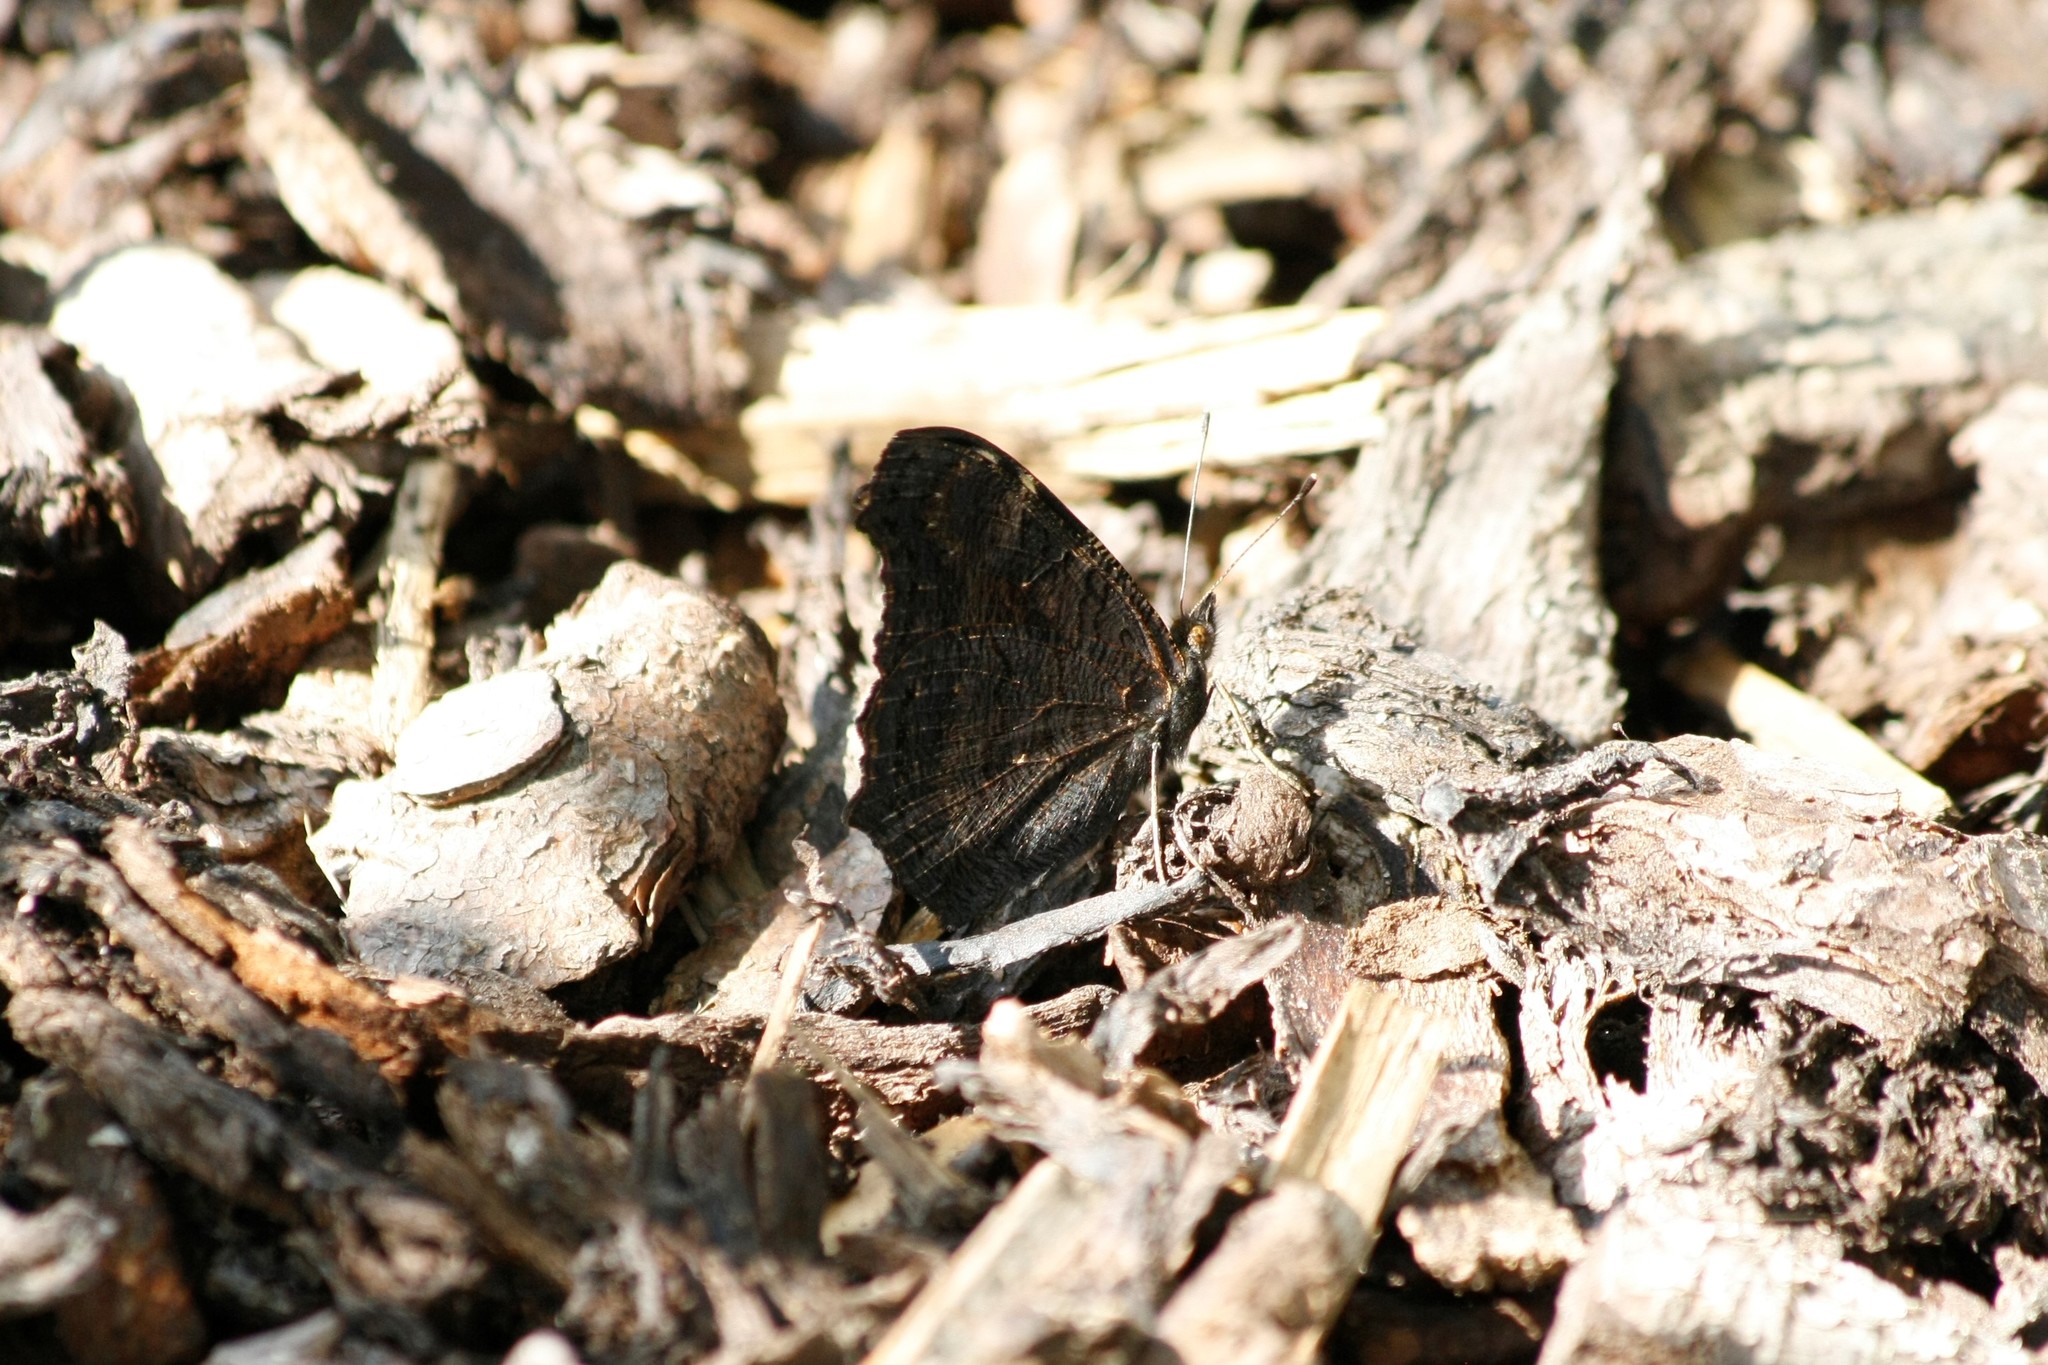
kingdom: Animalia
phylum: Arthropoda
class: Insecta
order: Lepidoptera
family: Nymphalidae
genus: Aglais
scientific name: Aglais io
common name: Peacock
